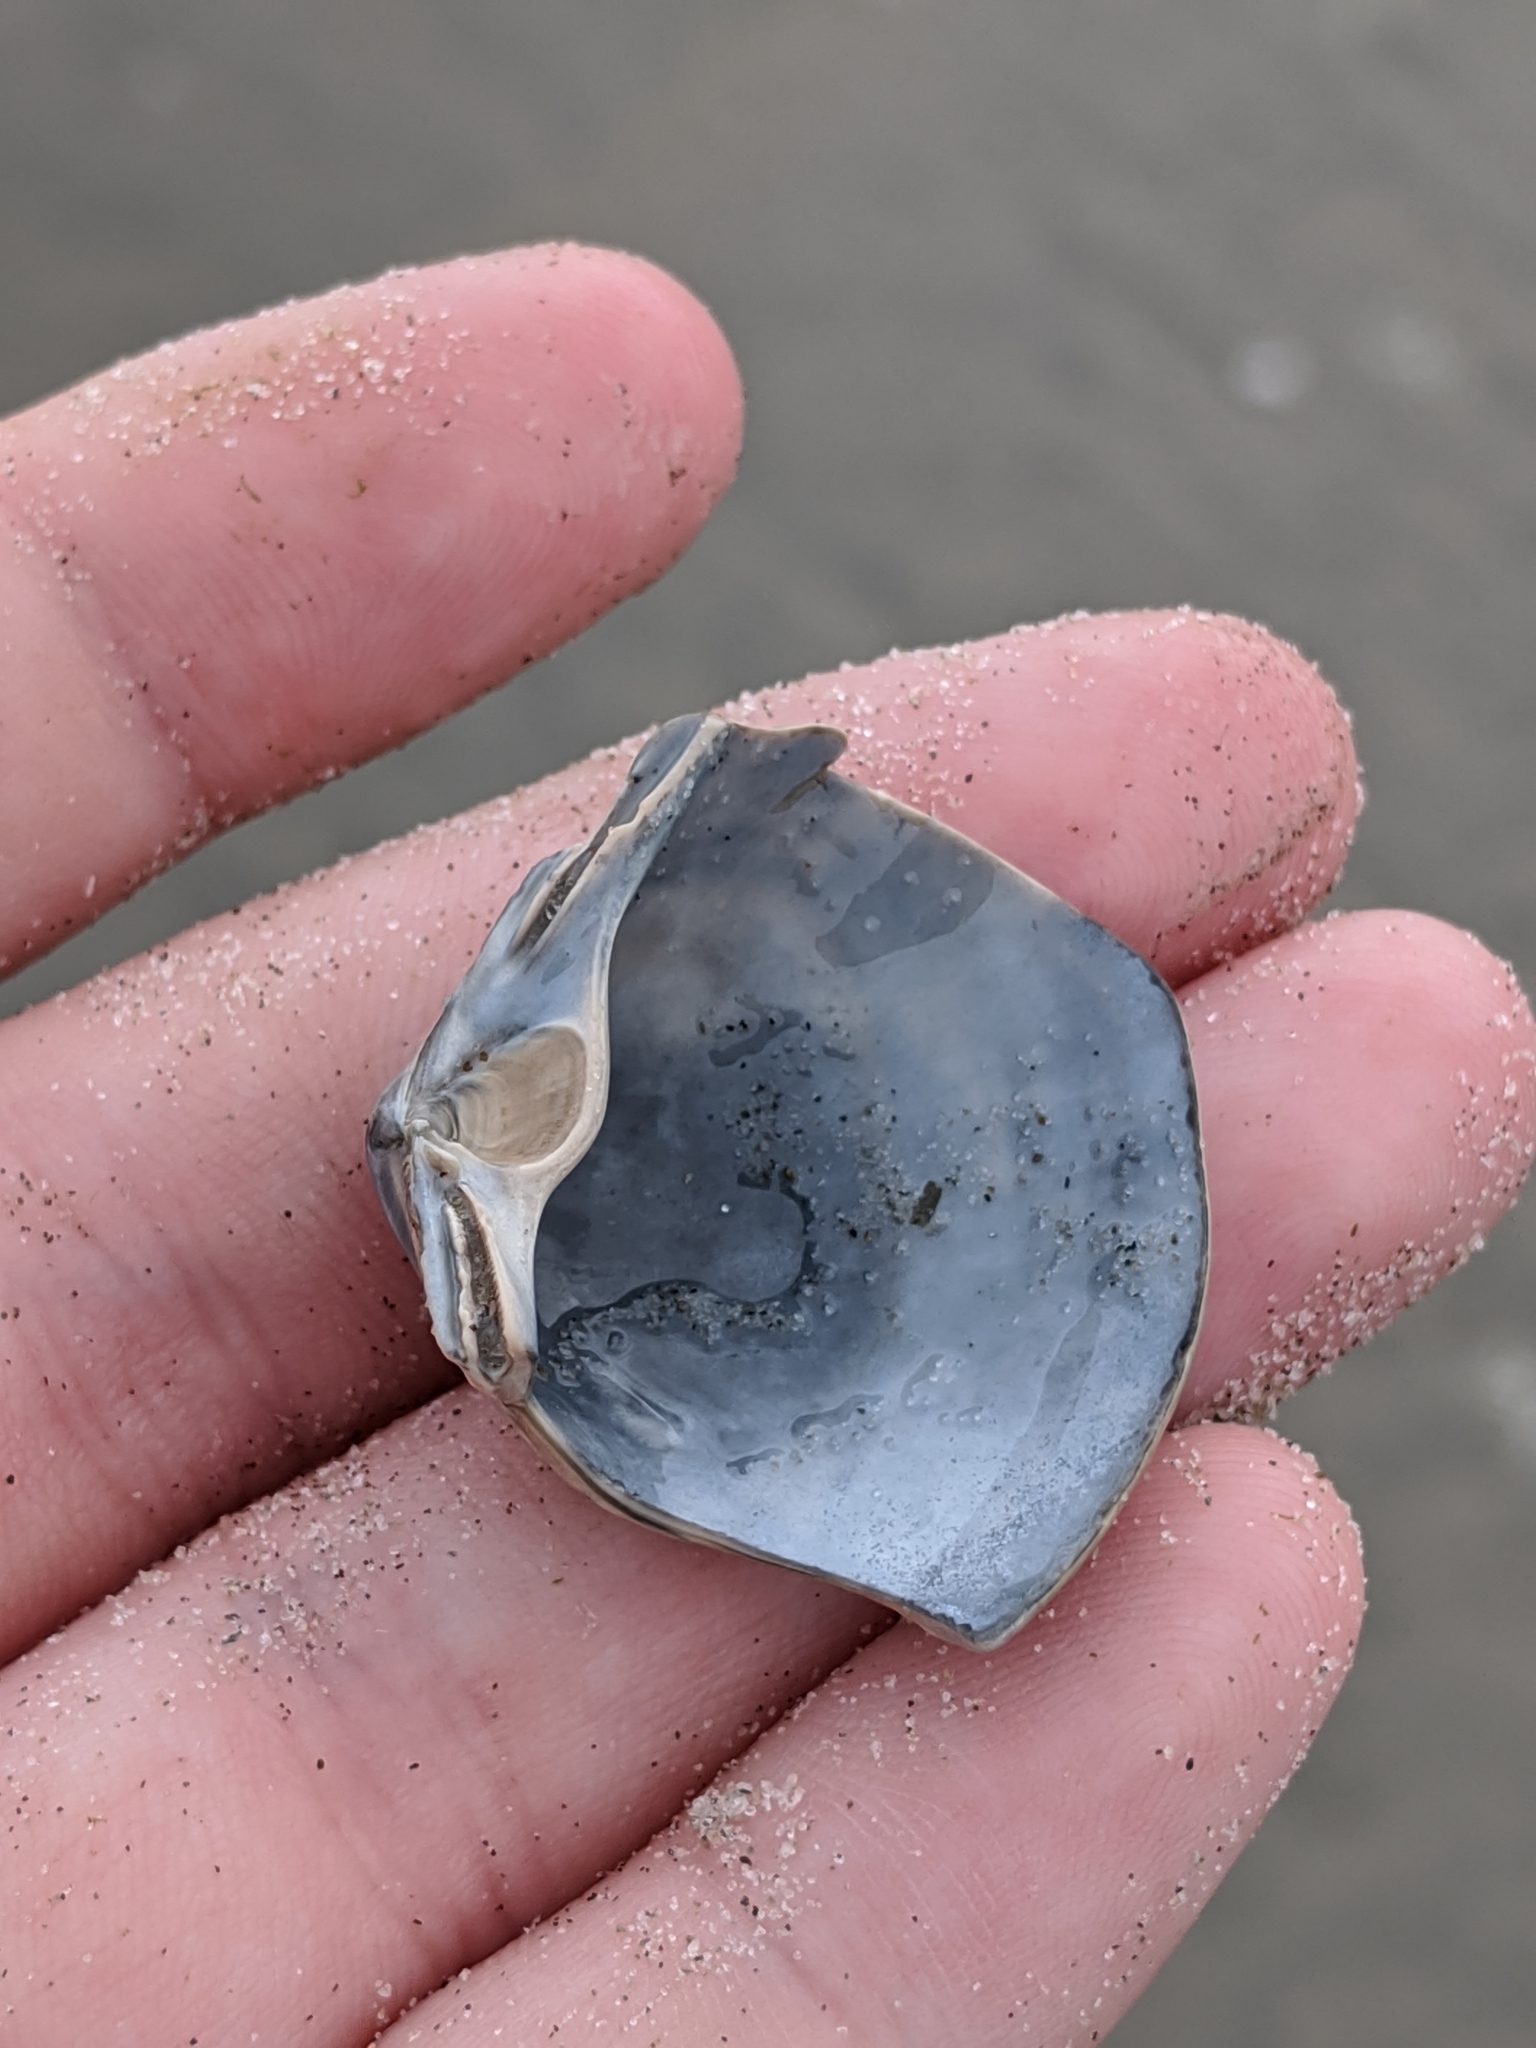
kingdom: Animalia
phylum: Mollusca
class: Bivalvia
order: Venerida
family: Mactridae
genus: Spisula
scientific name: Spisula solidissima
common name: Atlantic surf clam
